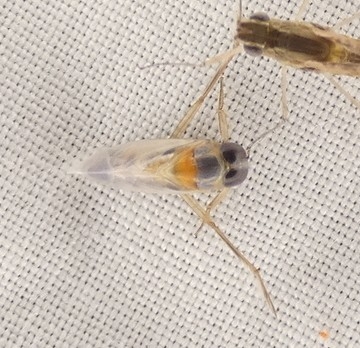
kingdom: Animalia
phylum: Arthropoda
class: Insecta
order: Hemiptera
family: Notonectidae
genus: Buenoa
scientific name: Buenoa
